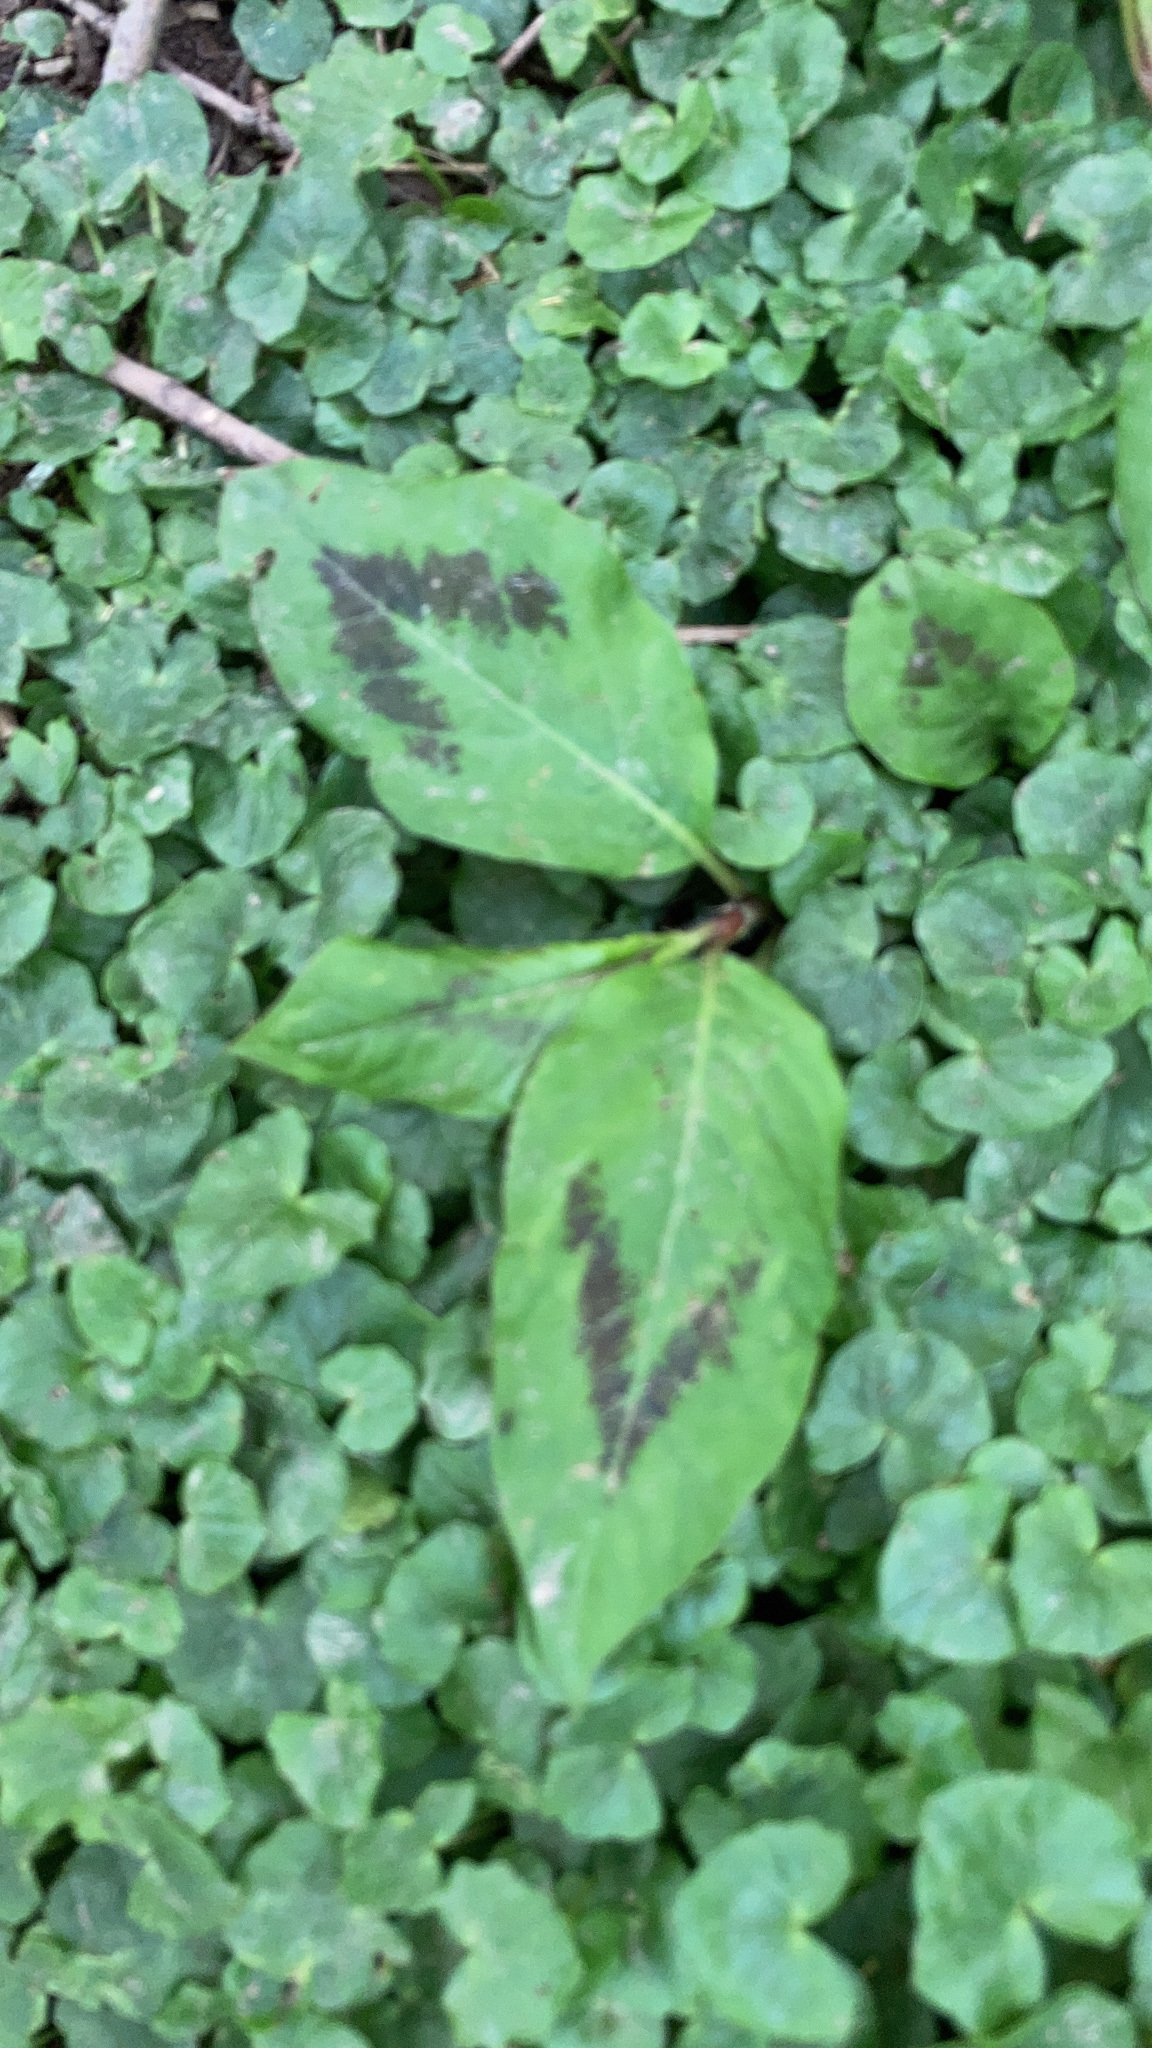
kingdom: Plantae
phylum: Tracheophyta
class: Magnoliopsida
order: Caryophyllales
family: Polygonaceae
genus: Persicaria
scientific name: Persicaria virginiana
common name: Jumpseed
